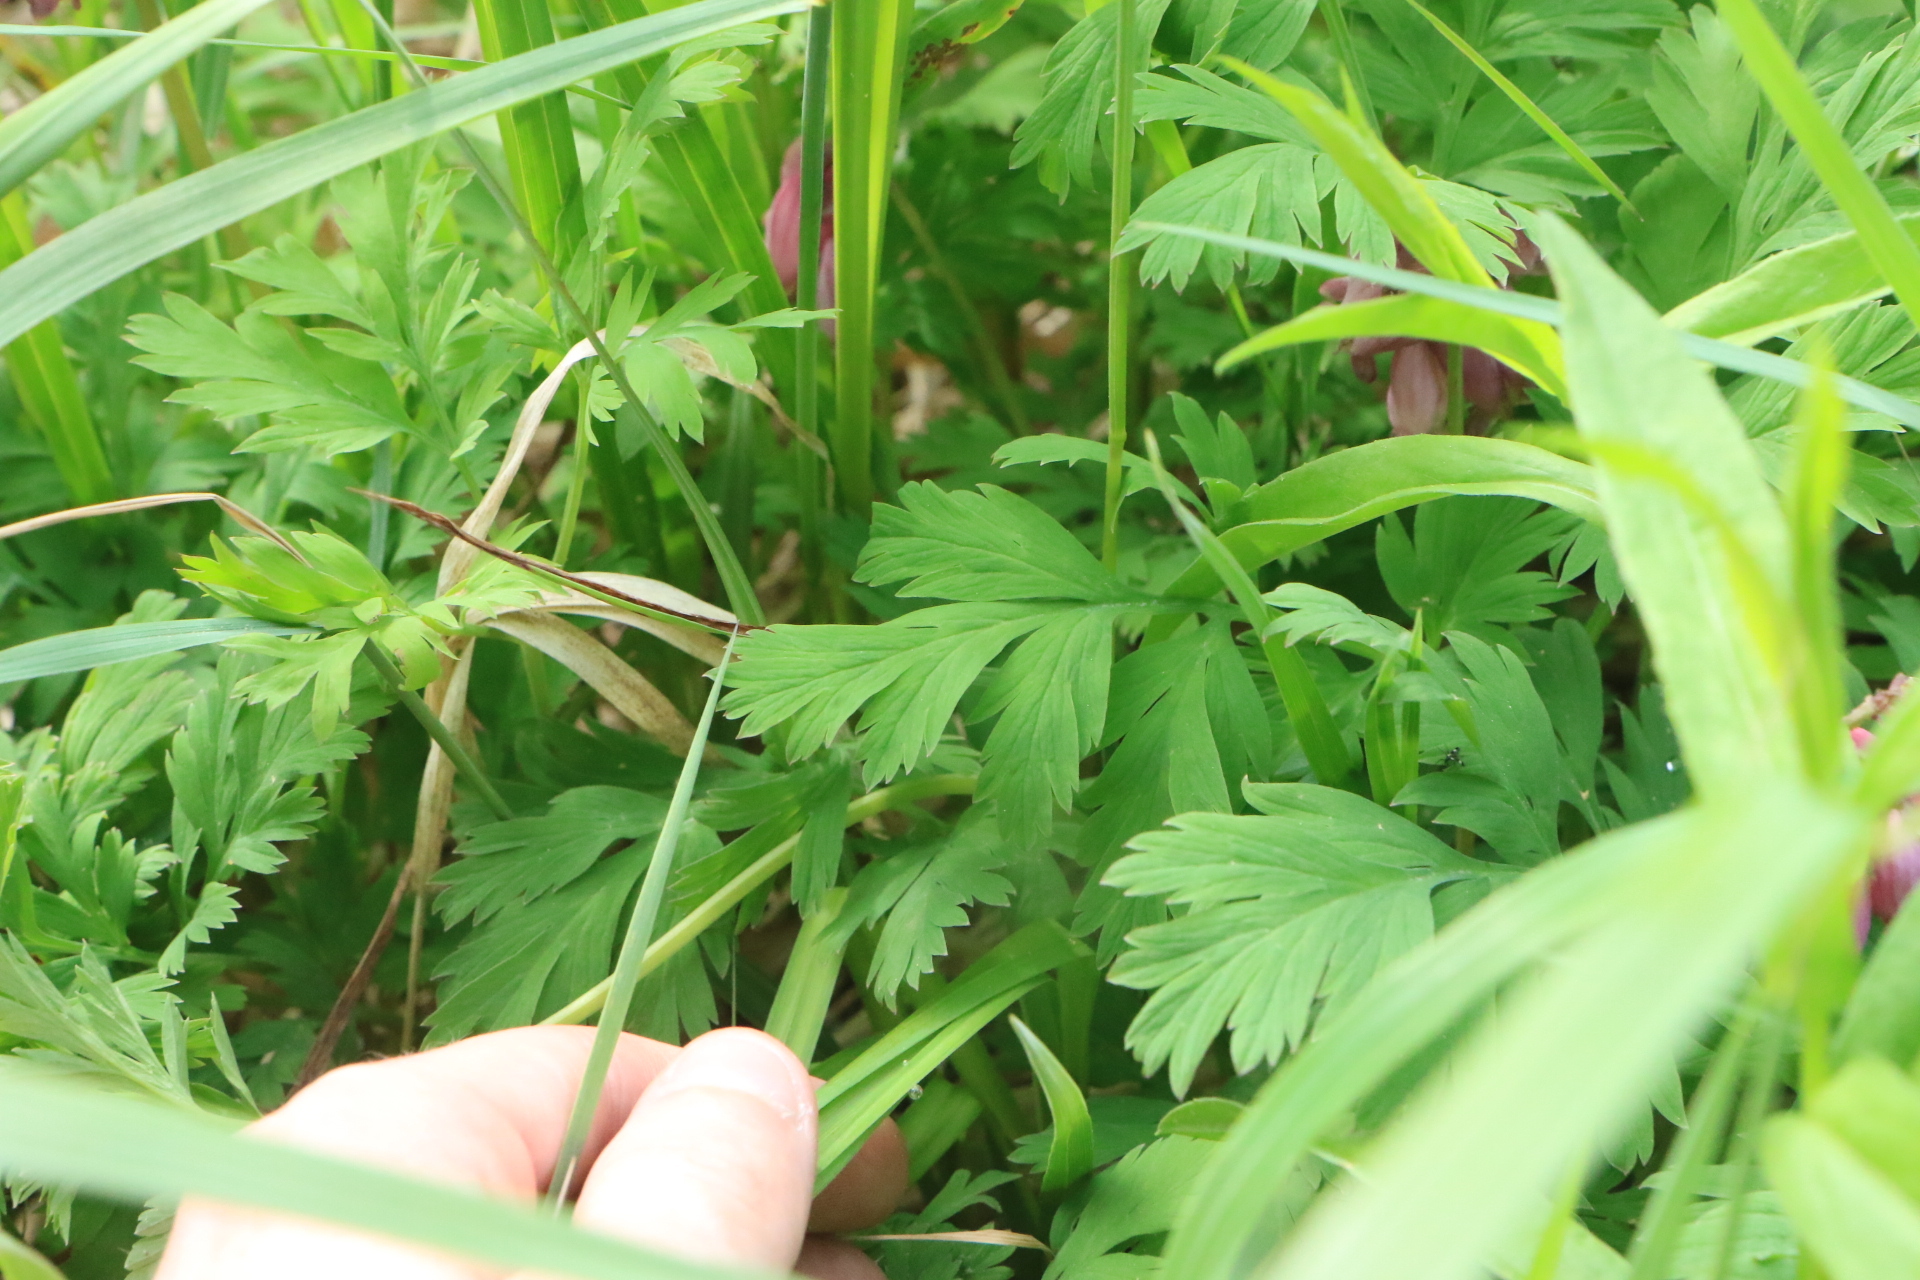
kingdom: Plantae
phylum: Tracheophyta
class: Magnoliopsida
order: Ranunculales
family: Papaveraceae
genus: Dicentra
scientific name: Dicentra formosa
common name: Bleeding-heart
